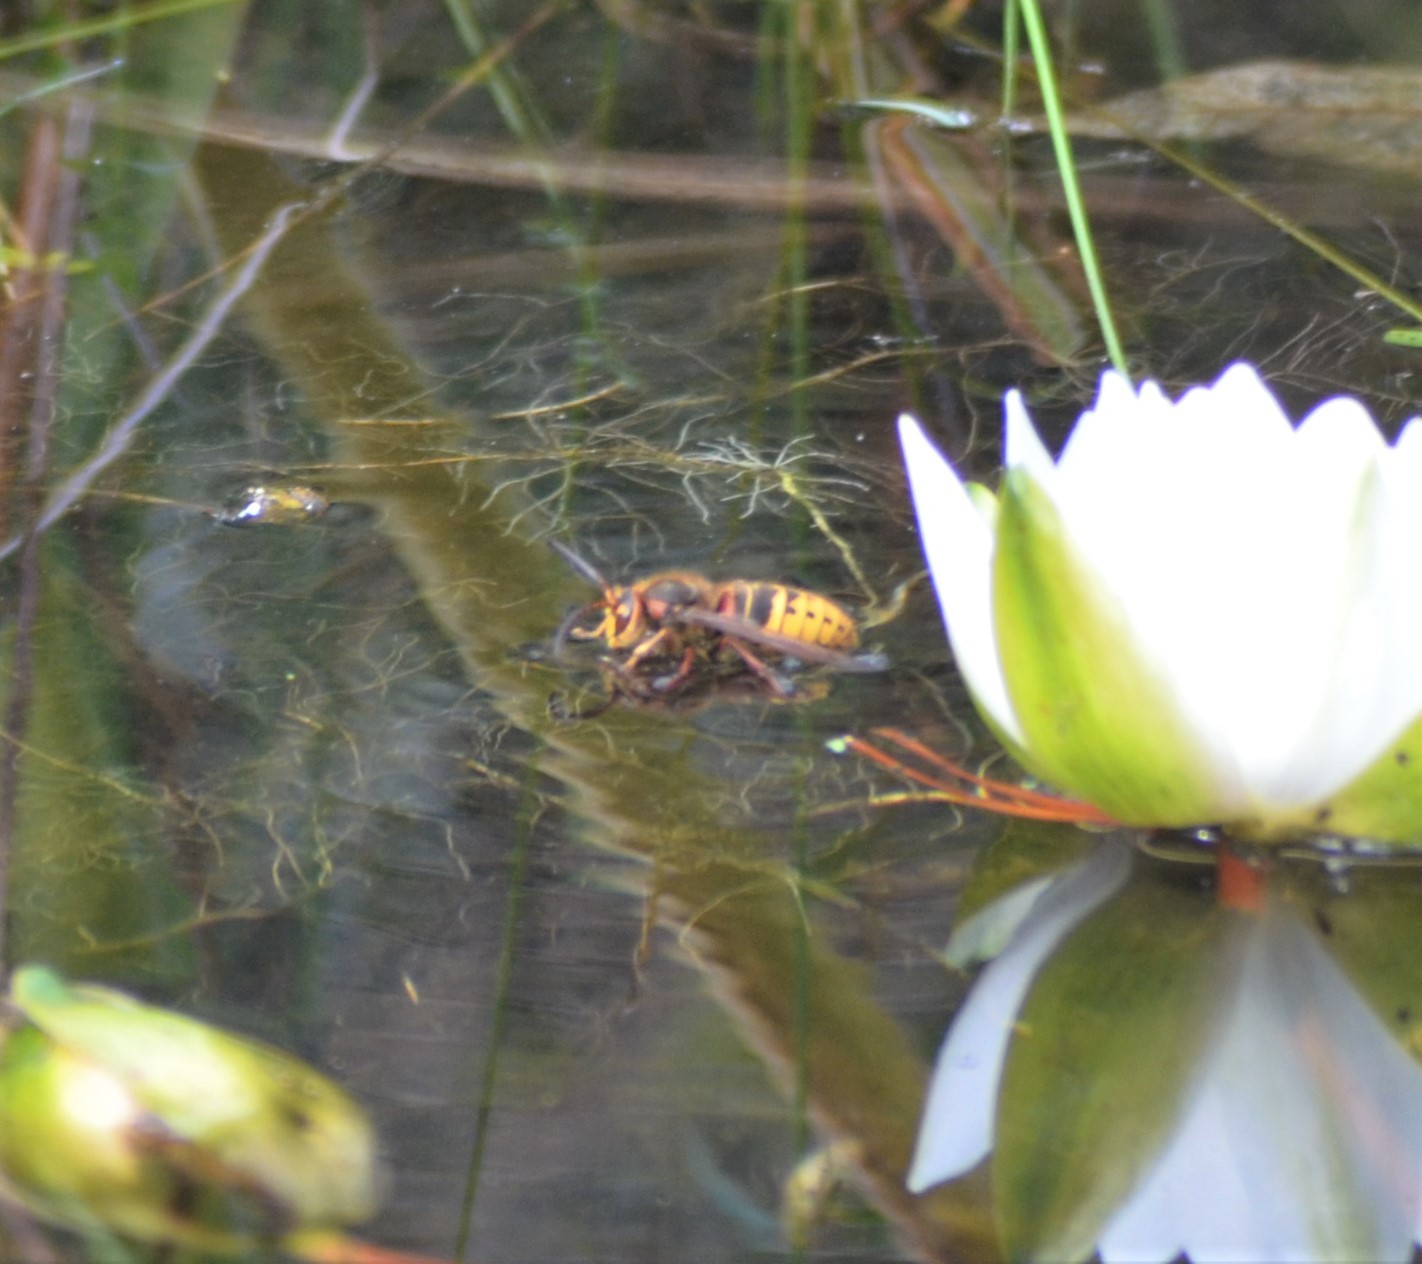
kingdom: Animalia
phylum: Arthropoda
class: Insecta
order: Hymenoptera
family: Vespidae
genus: Vespa
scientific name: Vespa crabro
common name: Hornet
